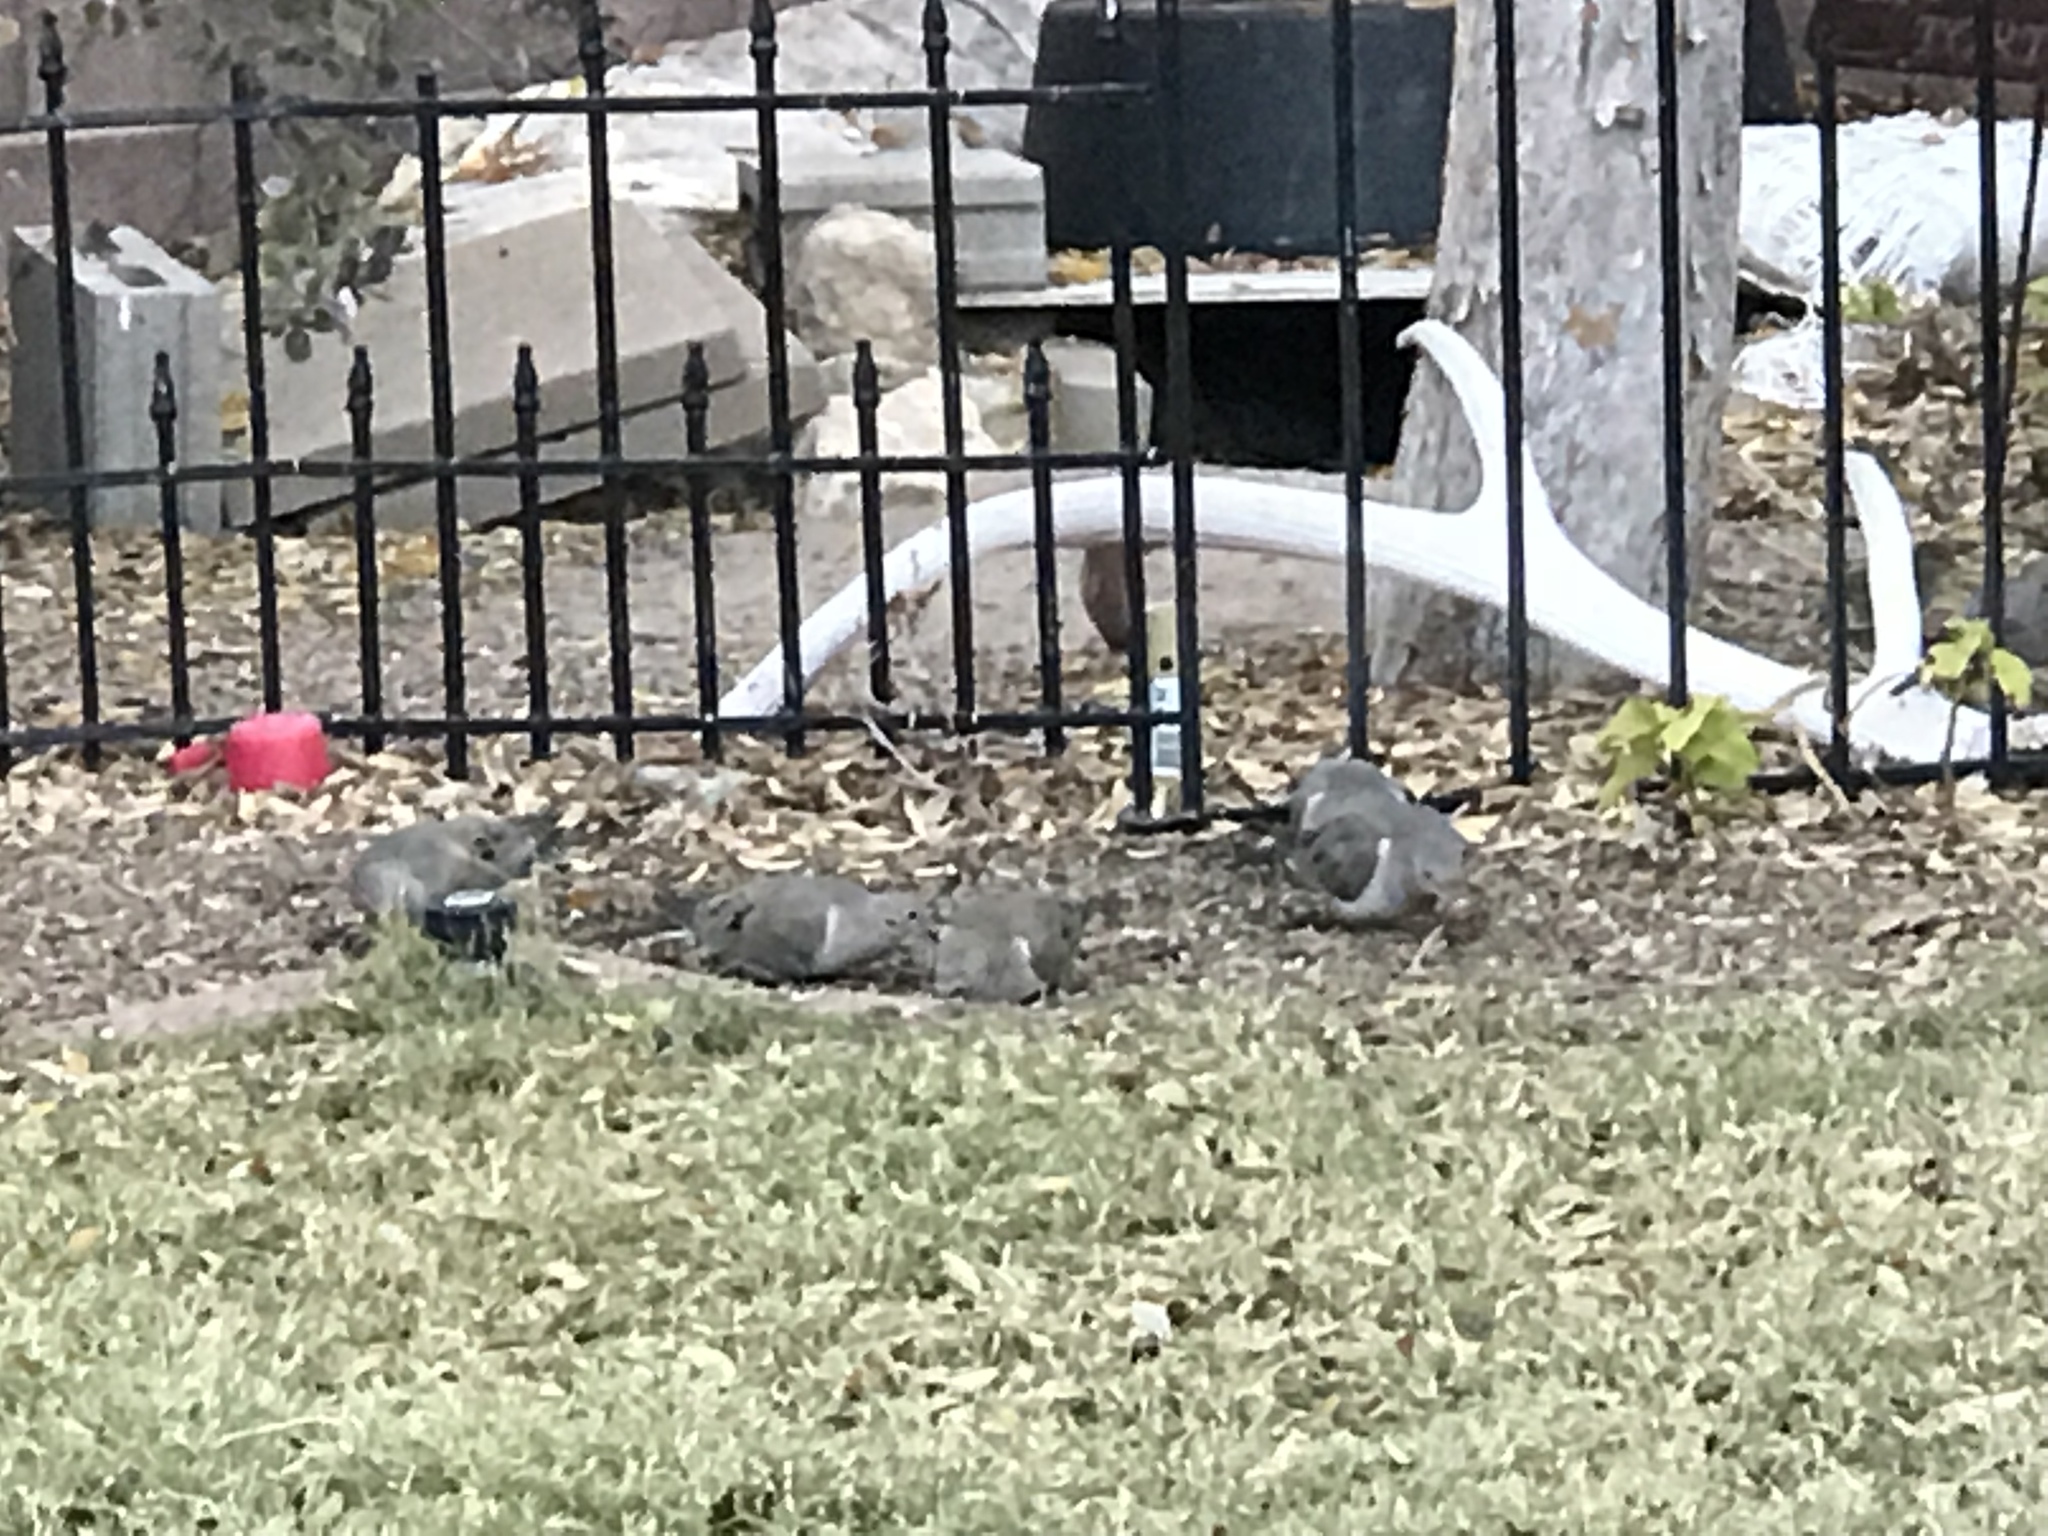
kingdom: Animalia
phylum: Chordata
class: Aves
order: Columbiformes
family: Columbidae
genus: Zenaida
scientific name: Zenaida macroura
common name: Mourning dove
